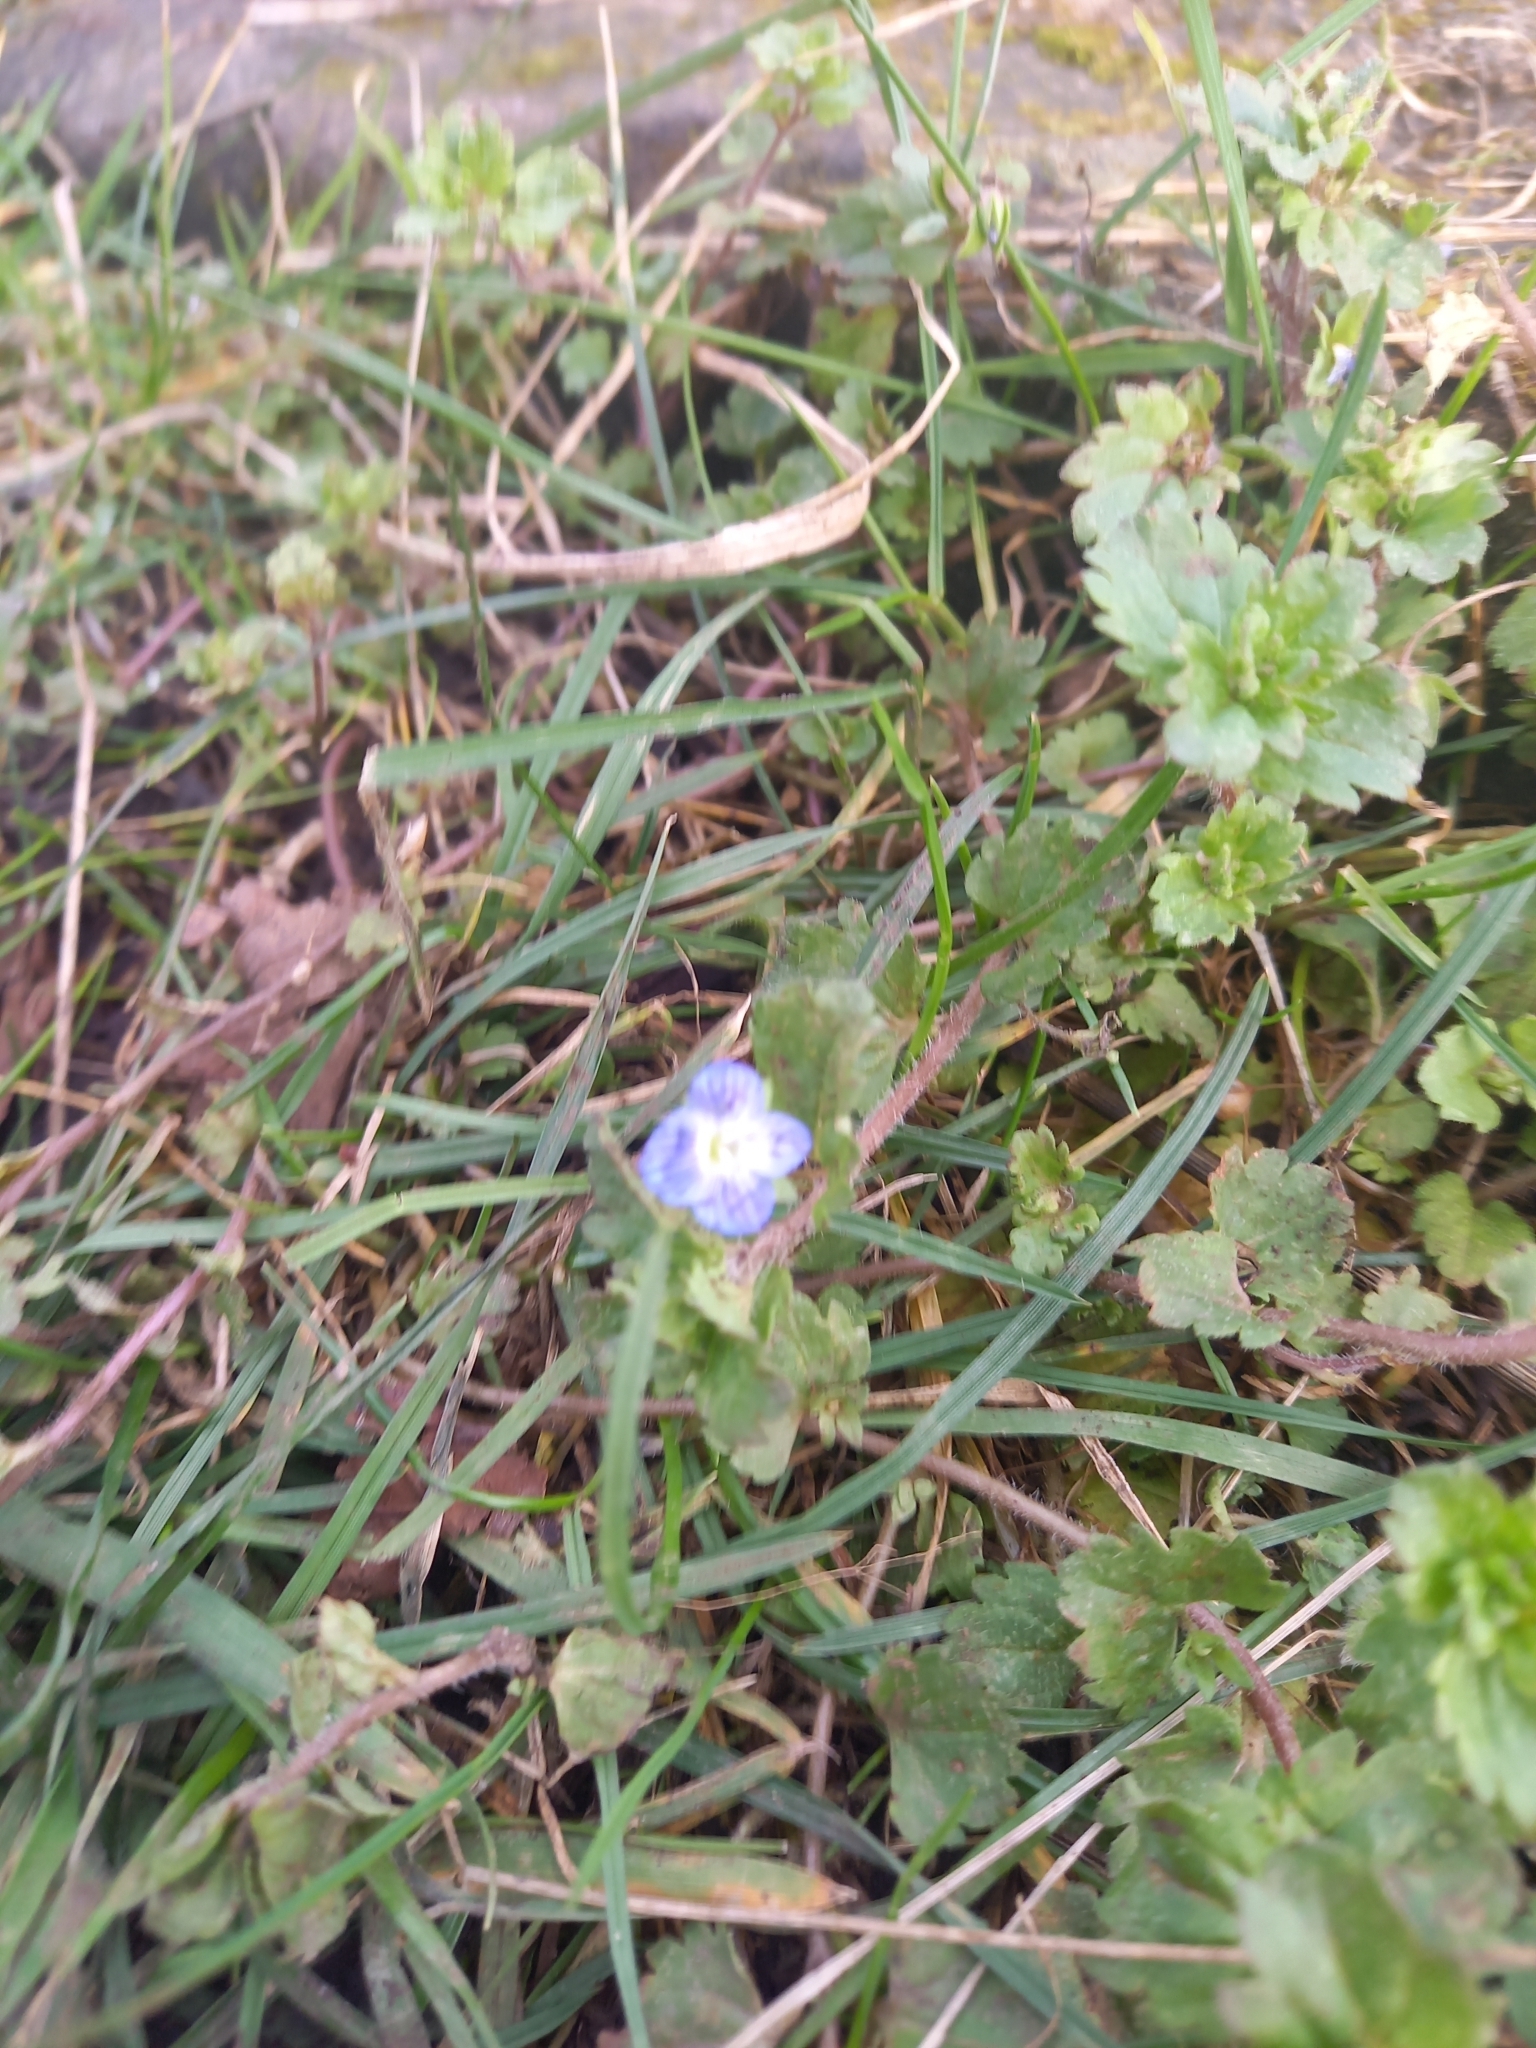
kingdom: Plantae
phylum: Tracheophyta
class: Magnoliopsida
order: Lamiales
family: Plantaginaceae
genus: Veronica
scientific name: Veronica persica
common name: Common field-speedwell
